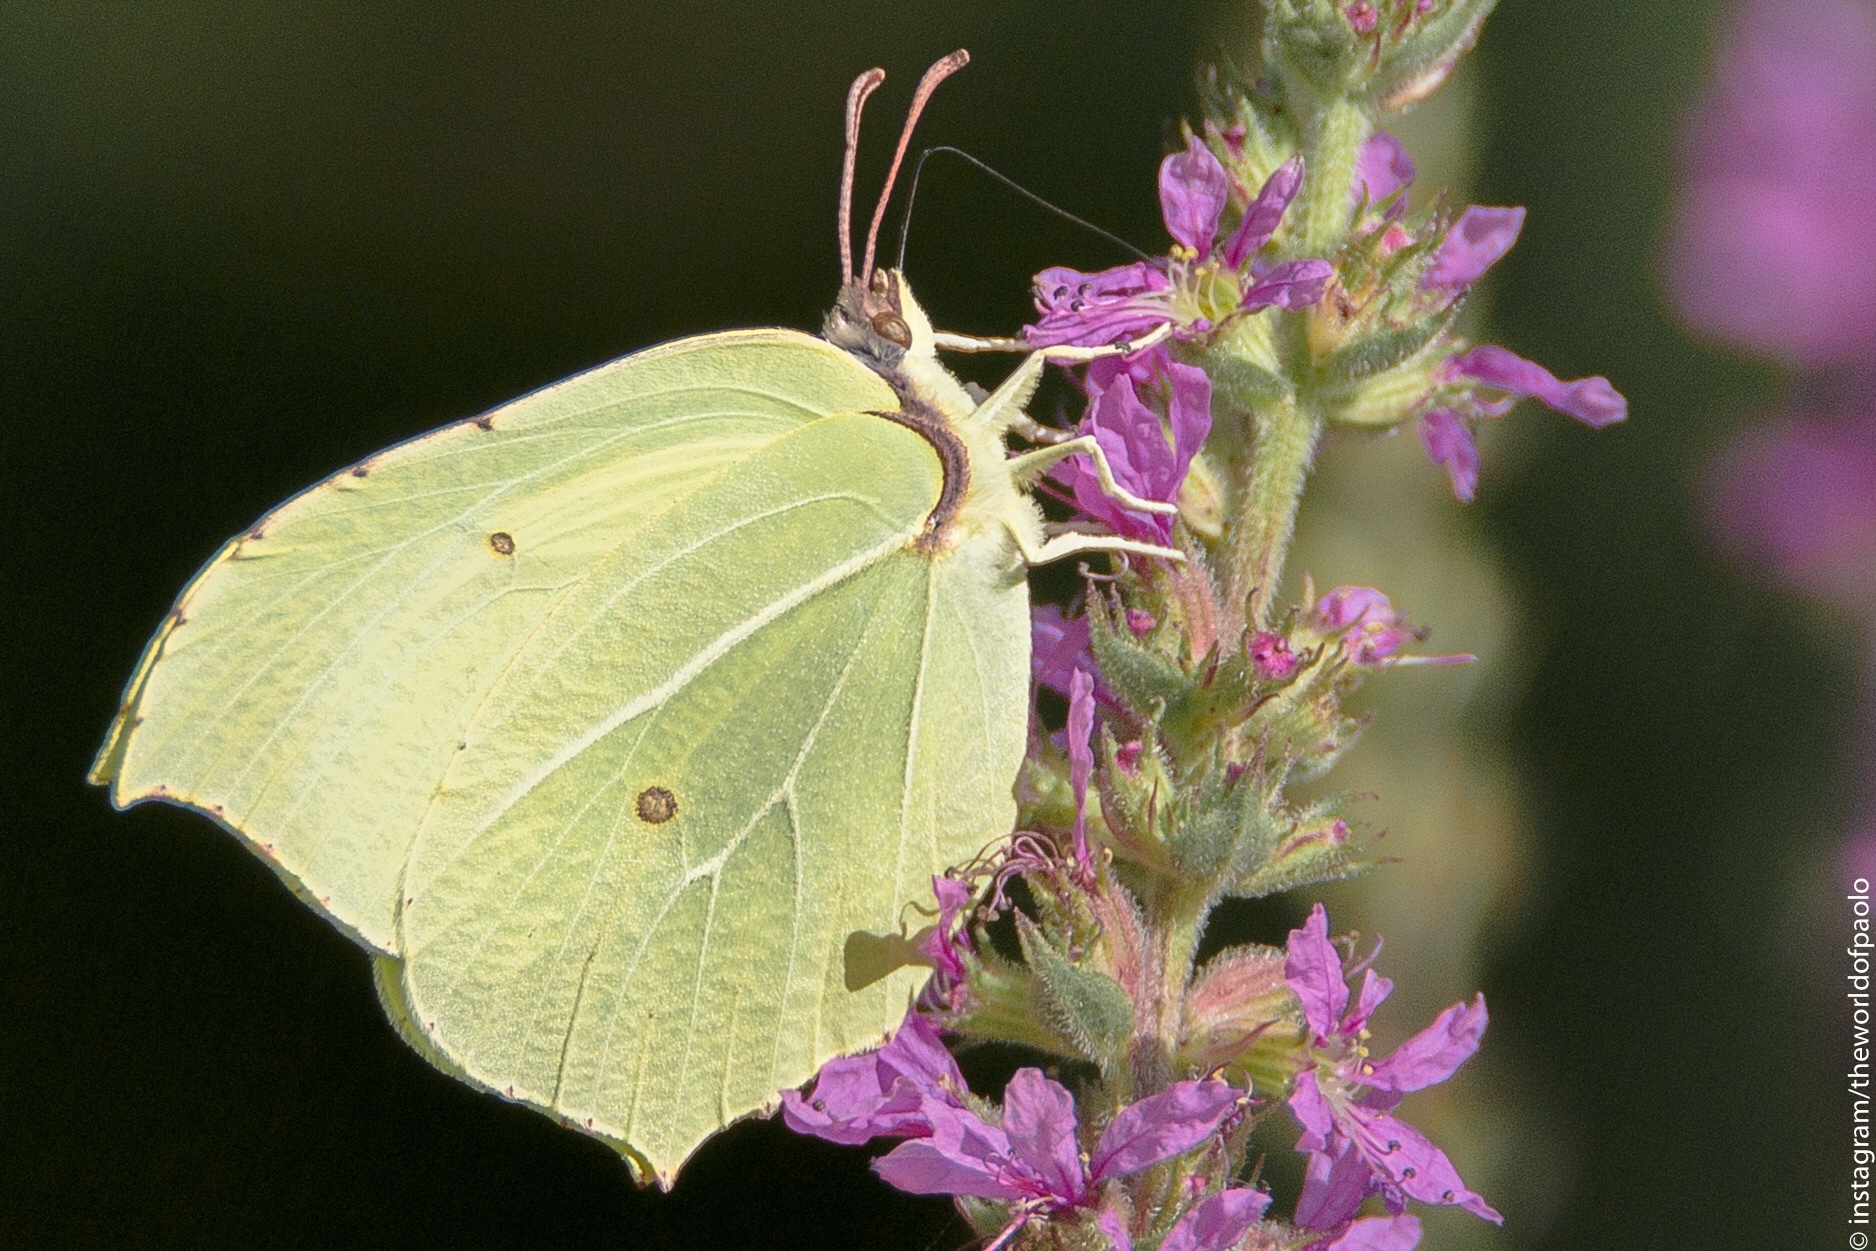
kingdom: Animalia
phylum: Arthropoda
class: Insecta
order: Lepidoptera
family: Pieridae
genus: Gonepteryx
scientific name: Gonepteryx rhamni
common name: Brimstone
